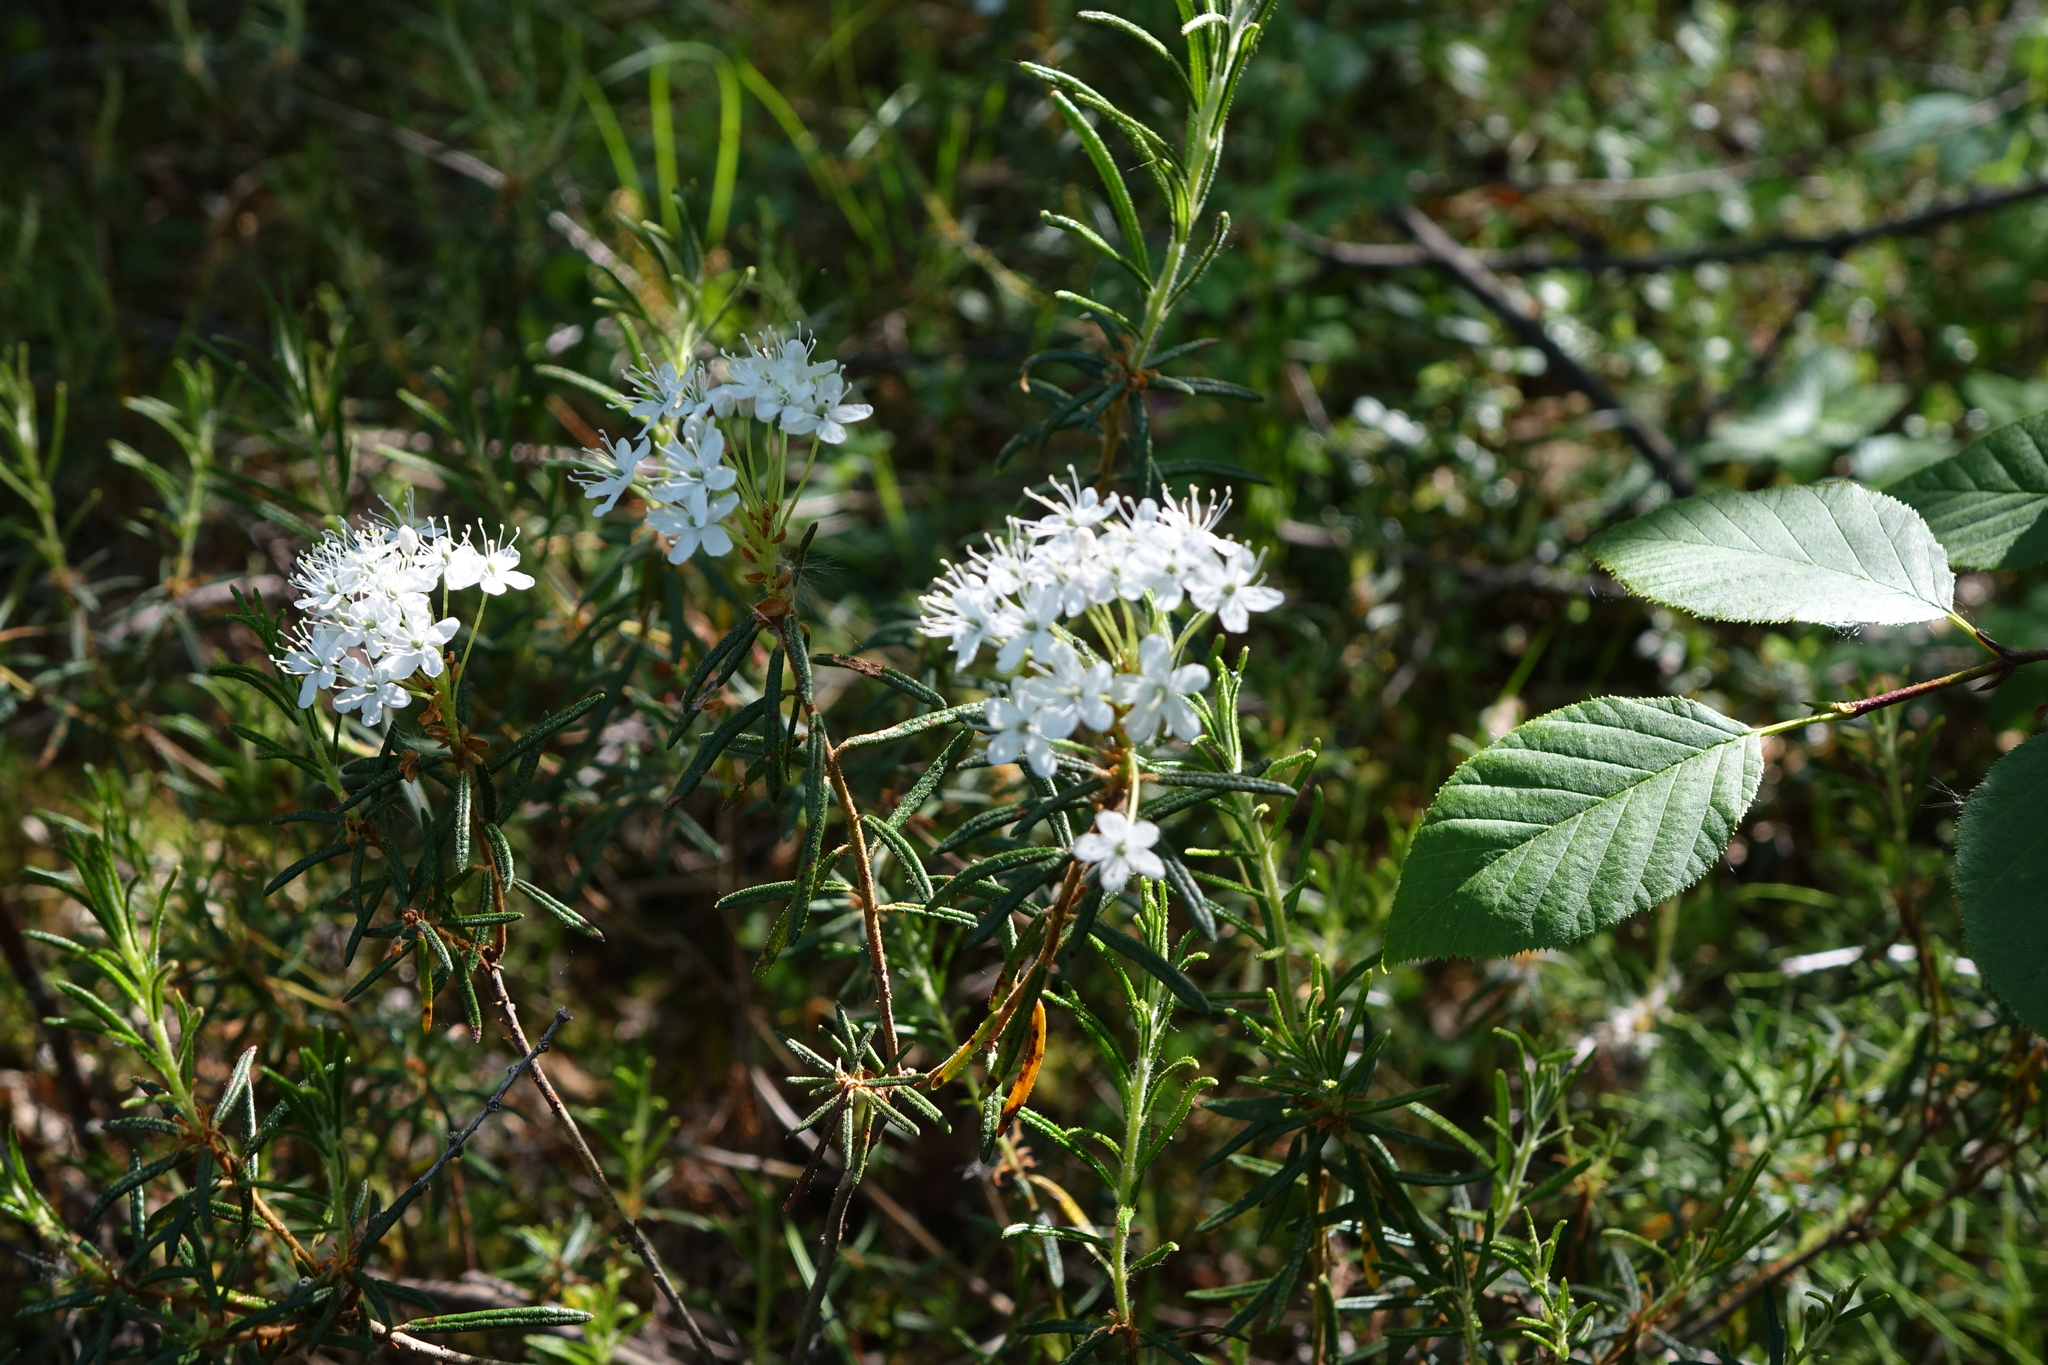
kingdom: Plantae
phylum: Tracheophyta
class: Magnoliopsida
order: Ericales
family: Ericaceae
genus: Rhododendron
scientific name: Rhododendron tomentosum
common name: Marsh labrador tea
